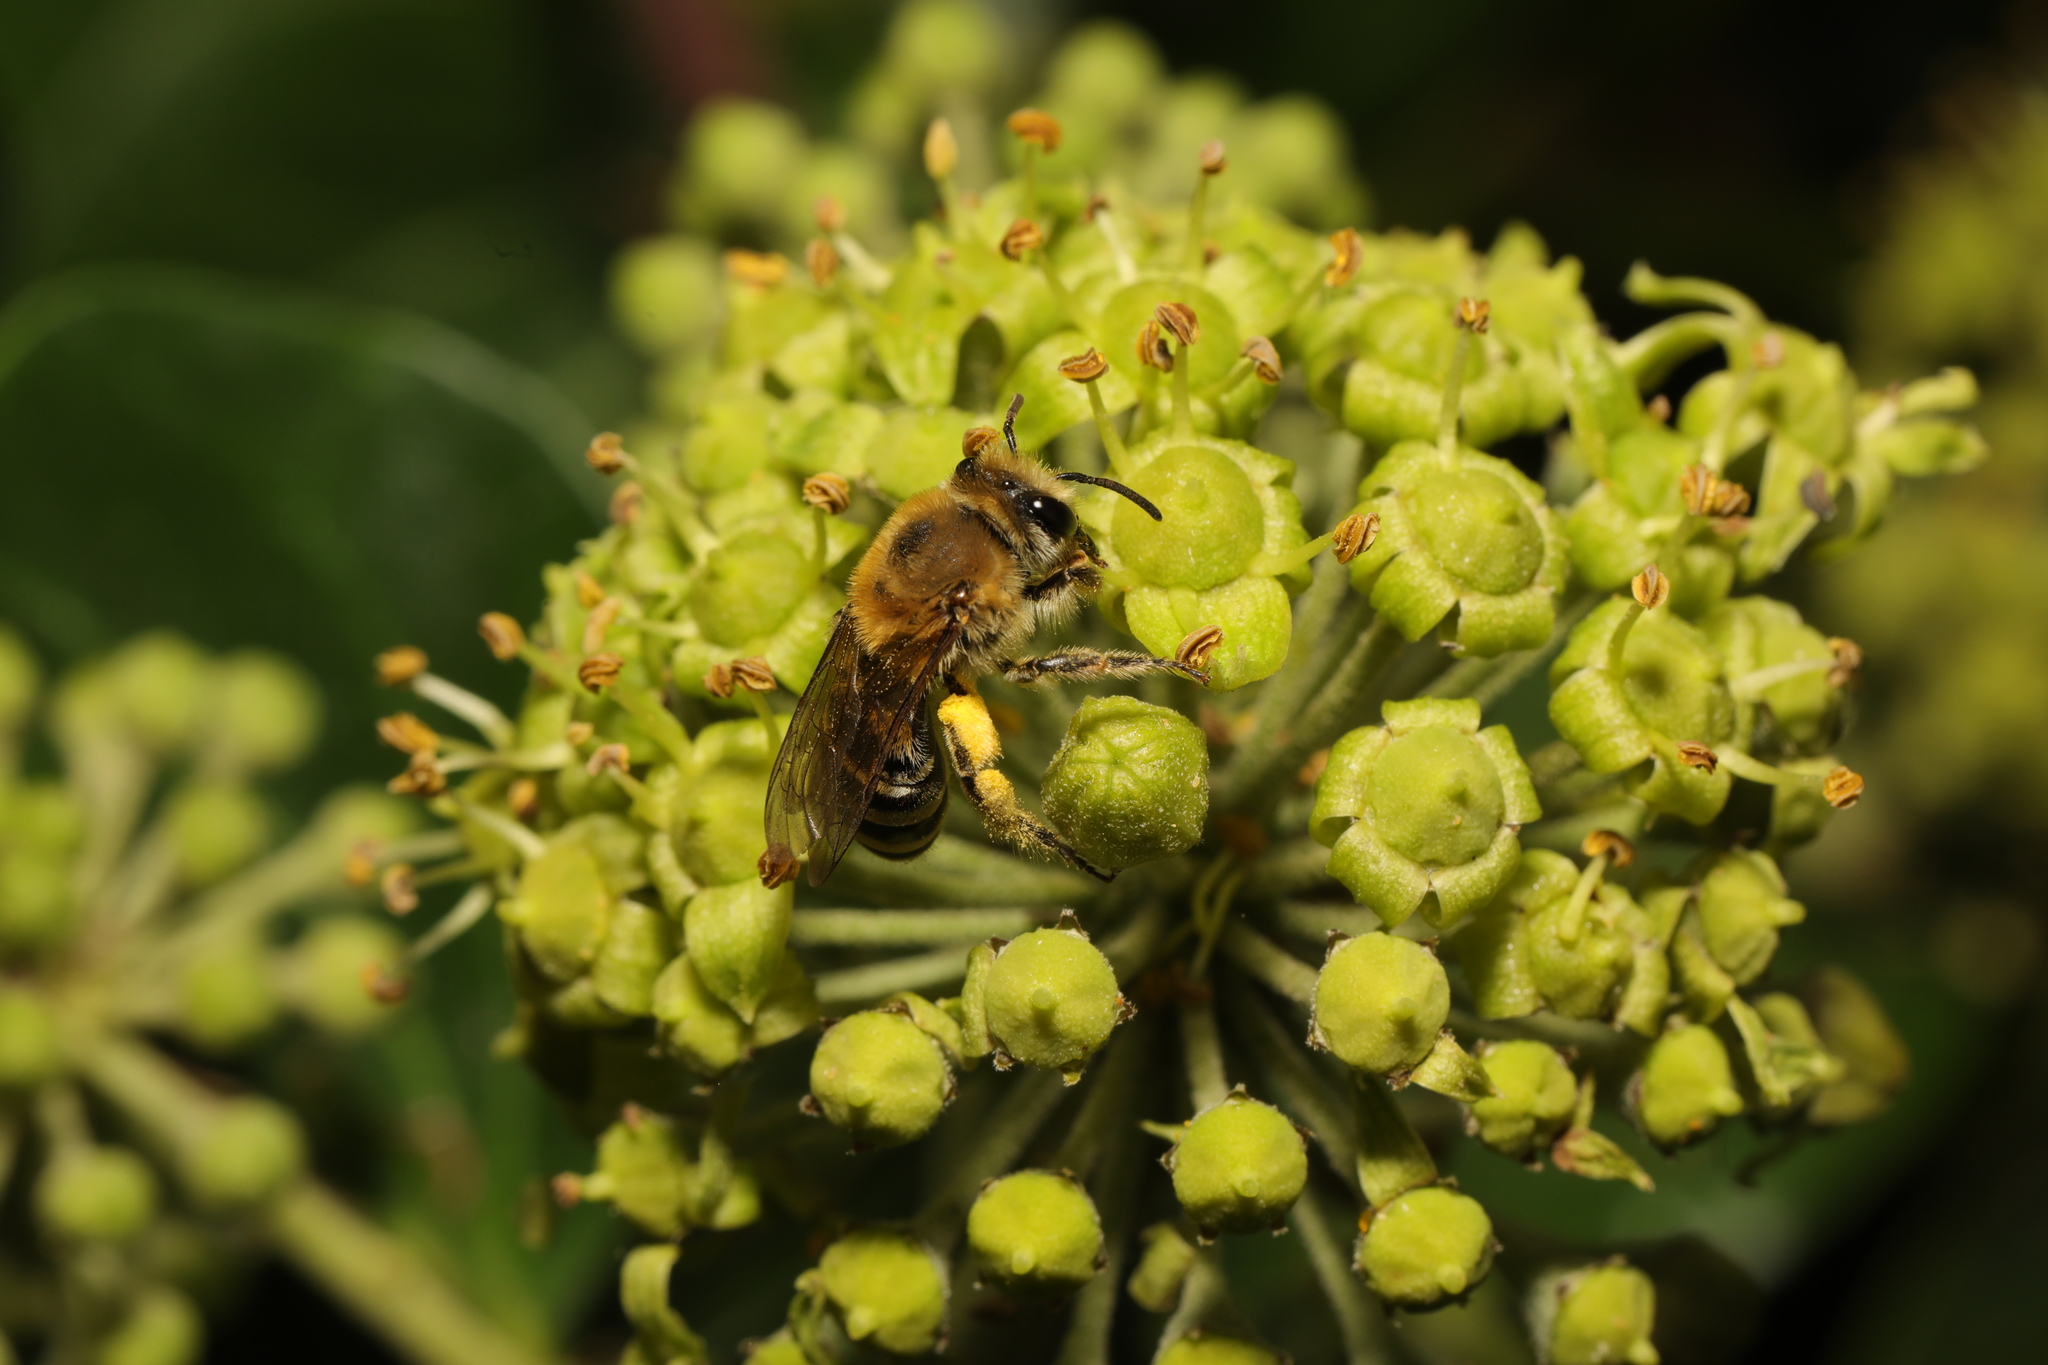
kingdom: Animalia
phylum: Arthropoda
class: Insecta
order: Hymenoptera
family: Colletidae
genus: Colletes
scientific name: Colletes hederae
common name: Ivy bee
